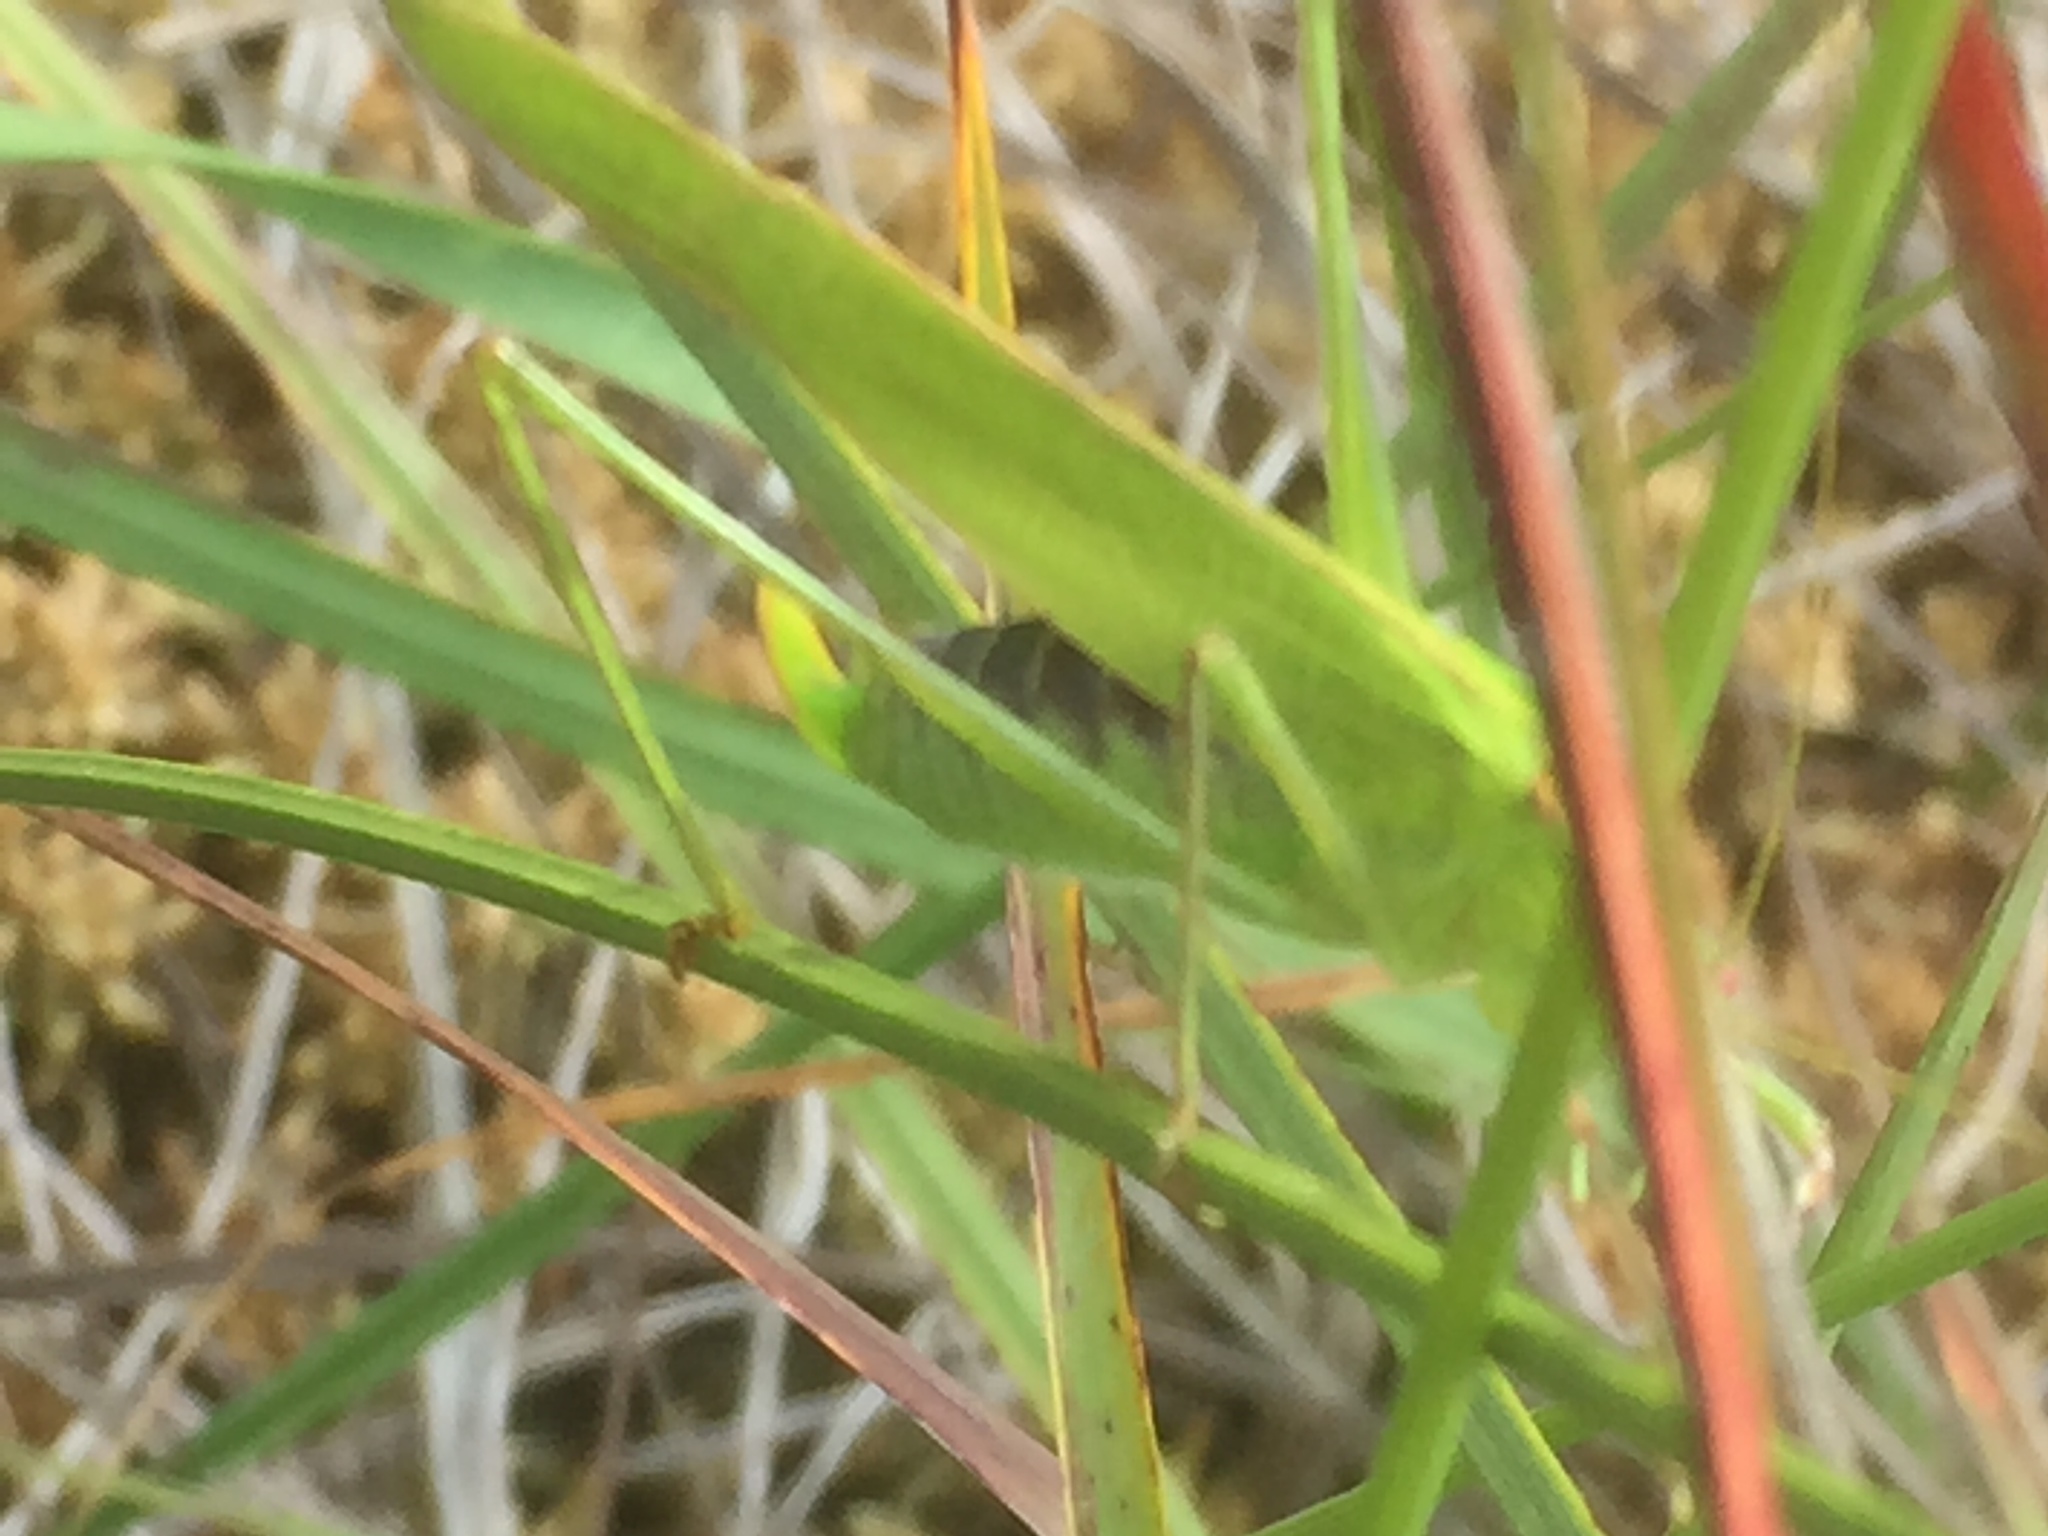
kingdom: Animalia
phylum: Arthropoda
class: Insecta
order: Orthoptera
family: Tettigoniidae
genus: Phaneroptera
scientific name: Phaneroptera falcata
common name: Sickle-bearing bush-cricket
